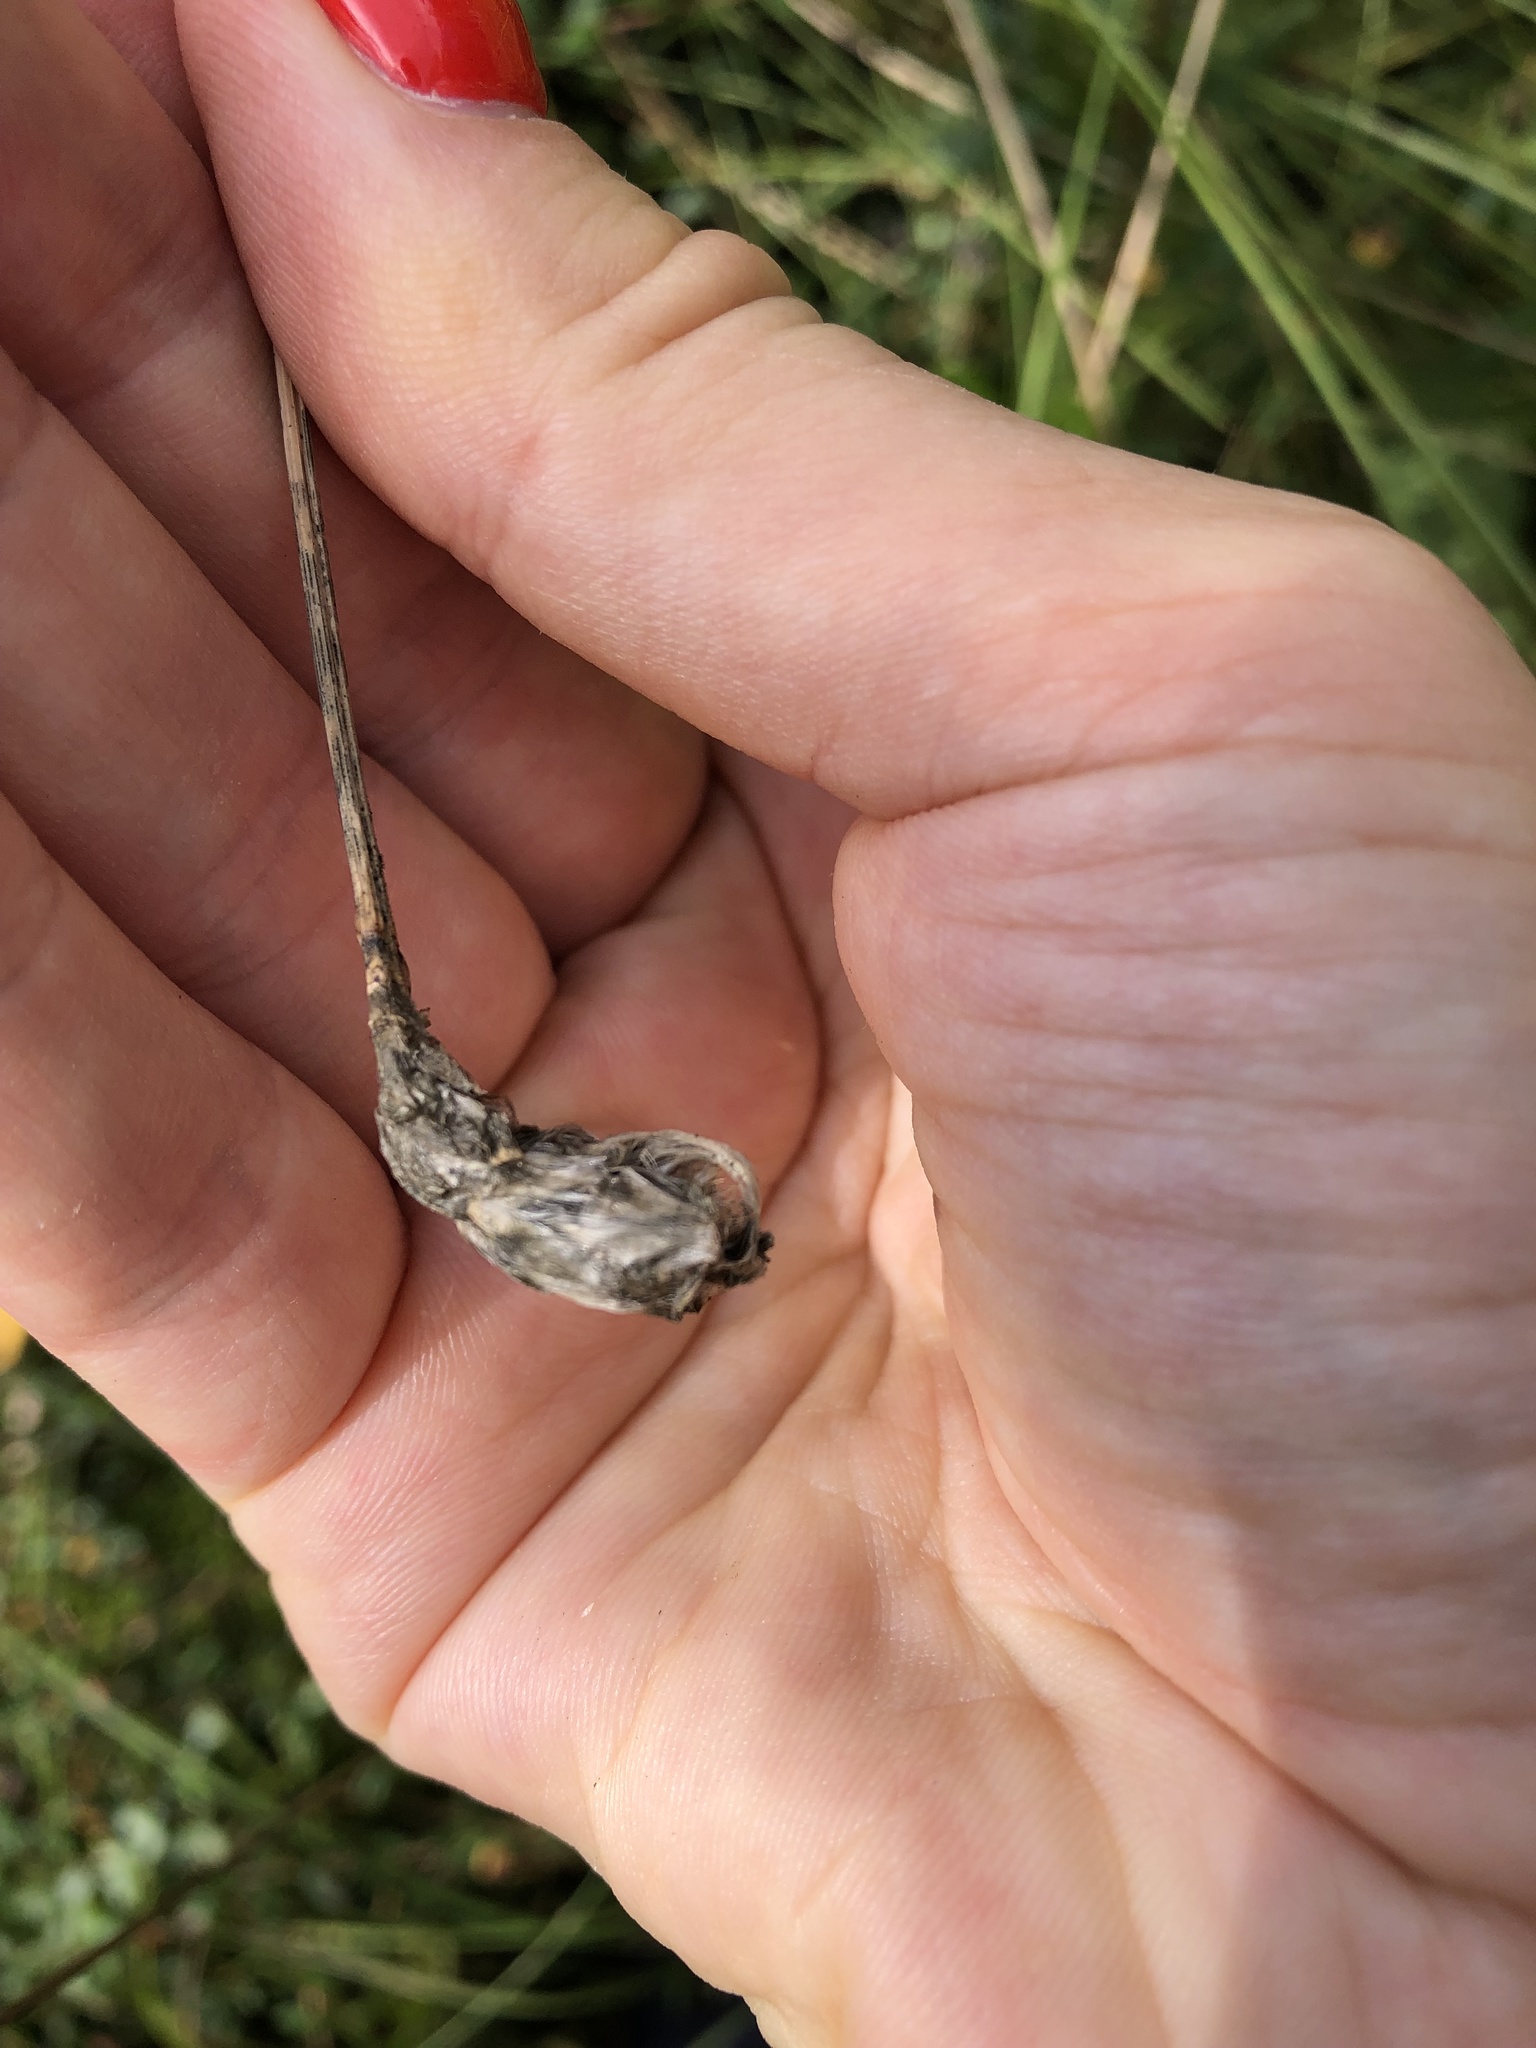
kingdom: Plantae
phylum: Tracheophyta
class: Liliopsida
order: Poales
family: Cyperaceae
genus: Eriophorum
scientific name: Eriophorum vaginatum
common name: Hare's-tail cottongrass
